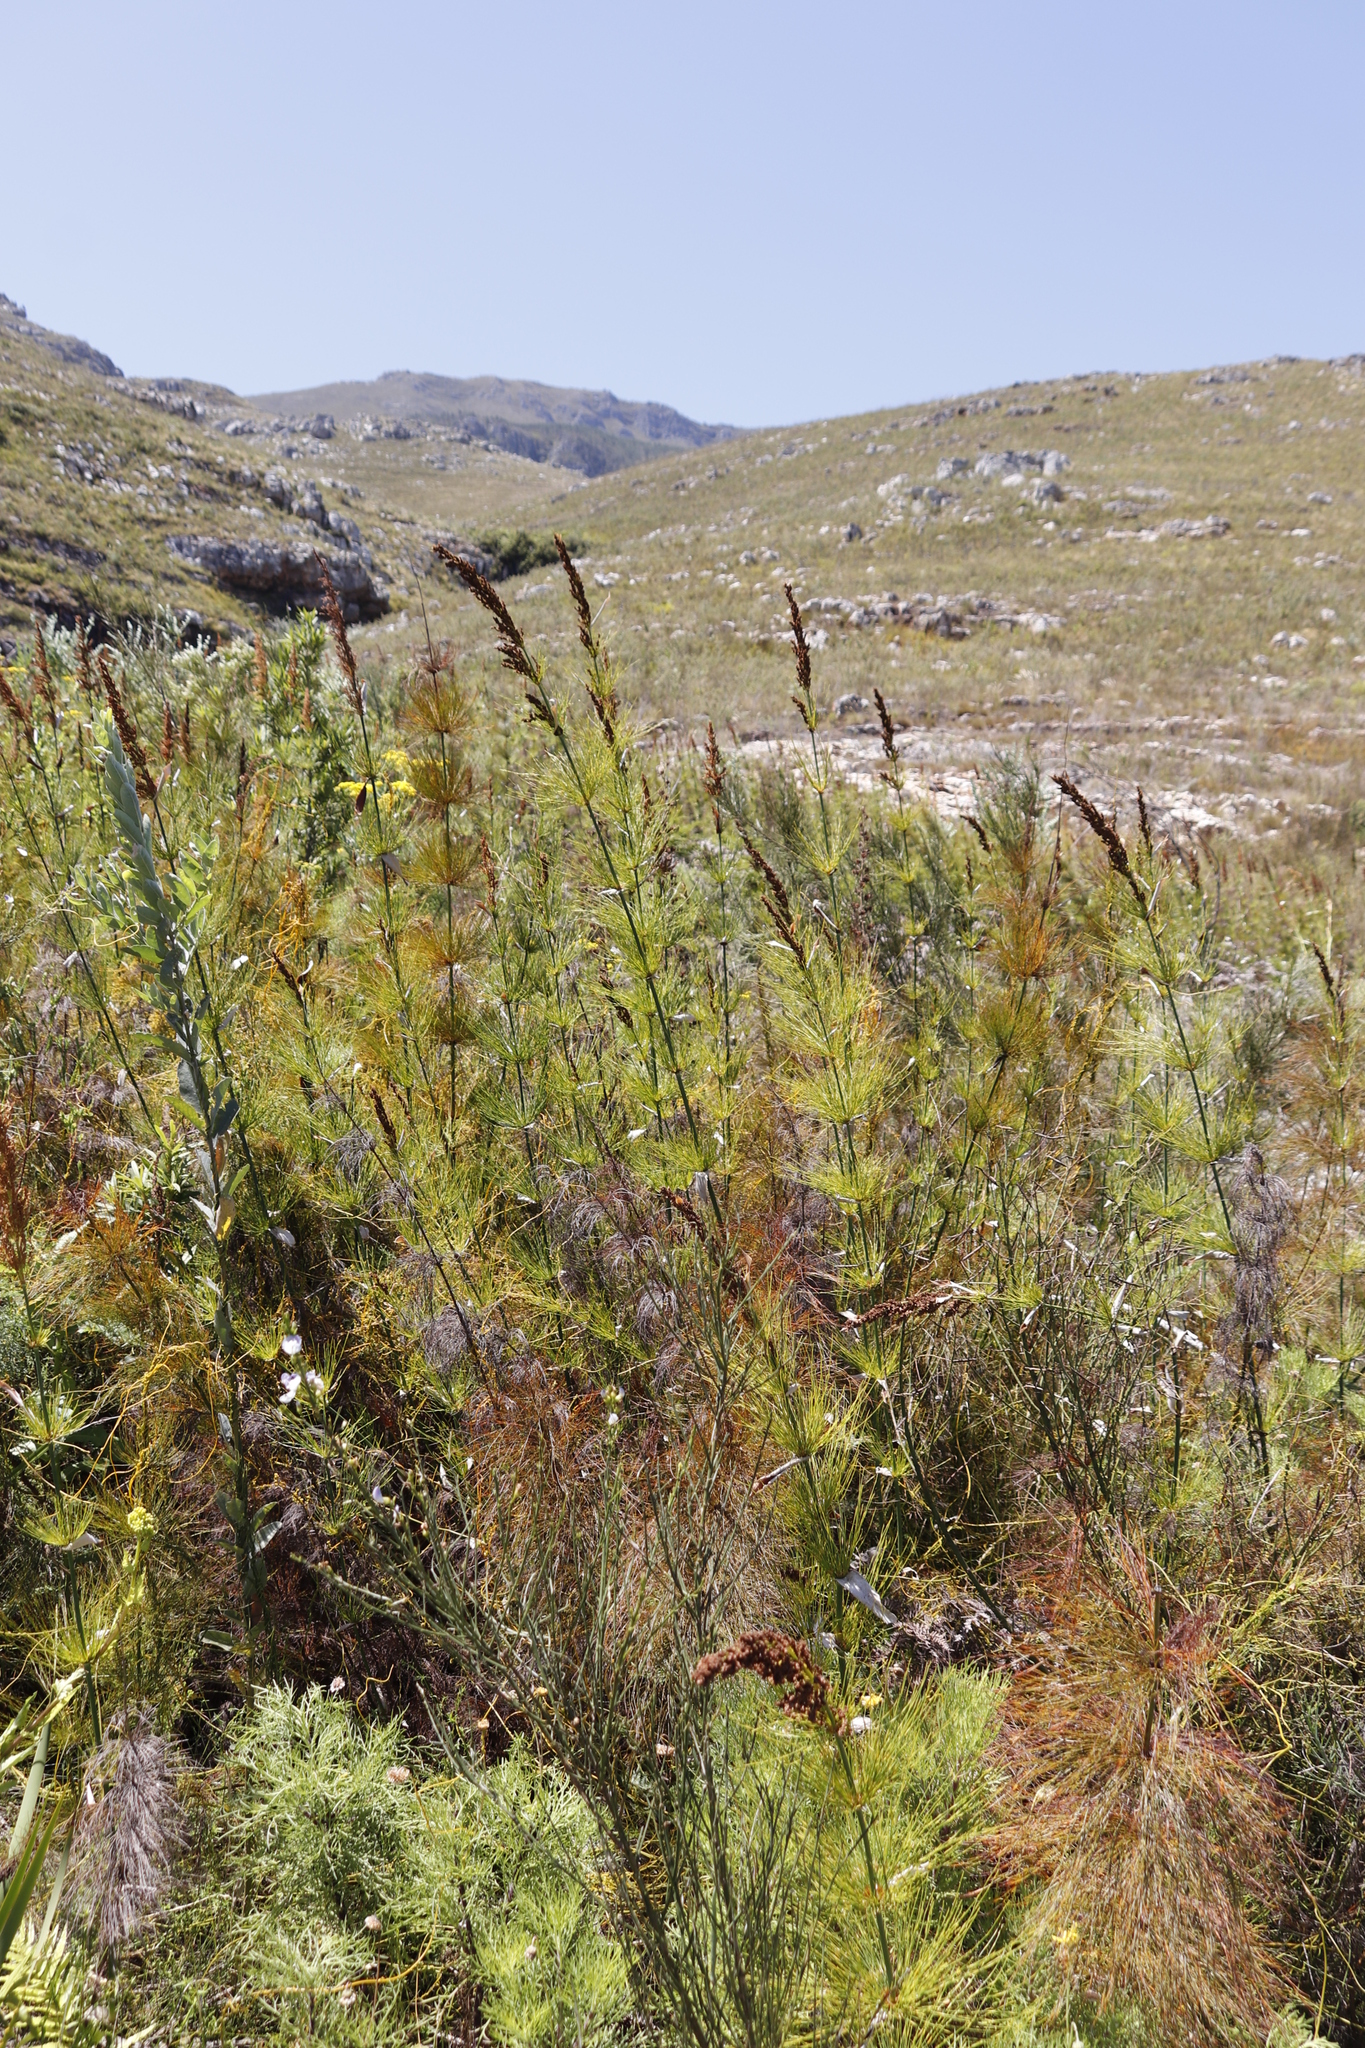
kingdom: Plantae
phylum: Tracheophyta
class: Liliopsida
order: Poales
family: Restionaceae
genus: Elegia
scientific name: Elegia capensis
